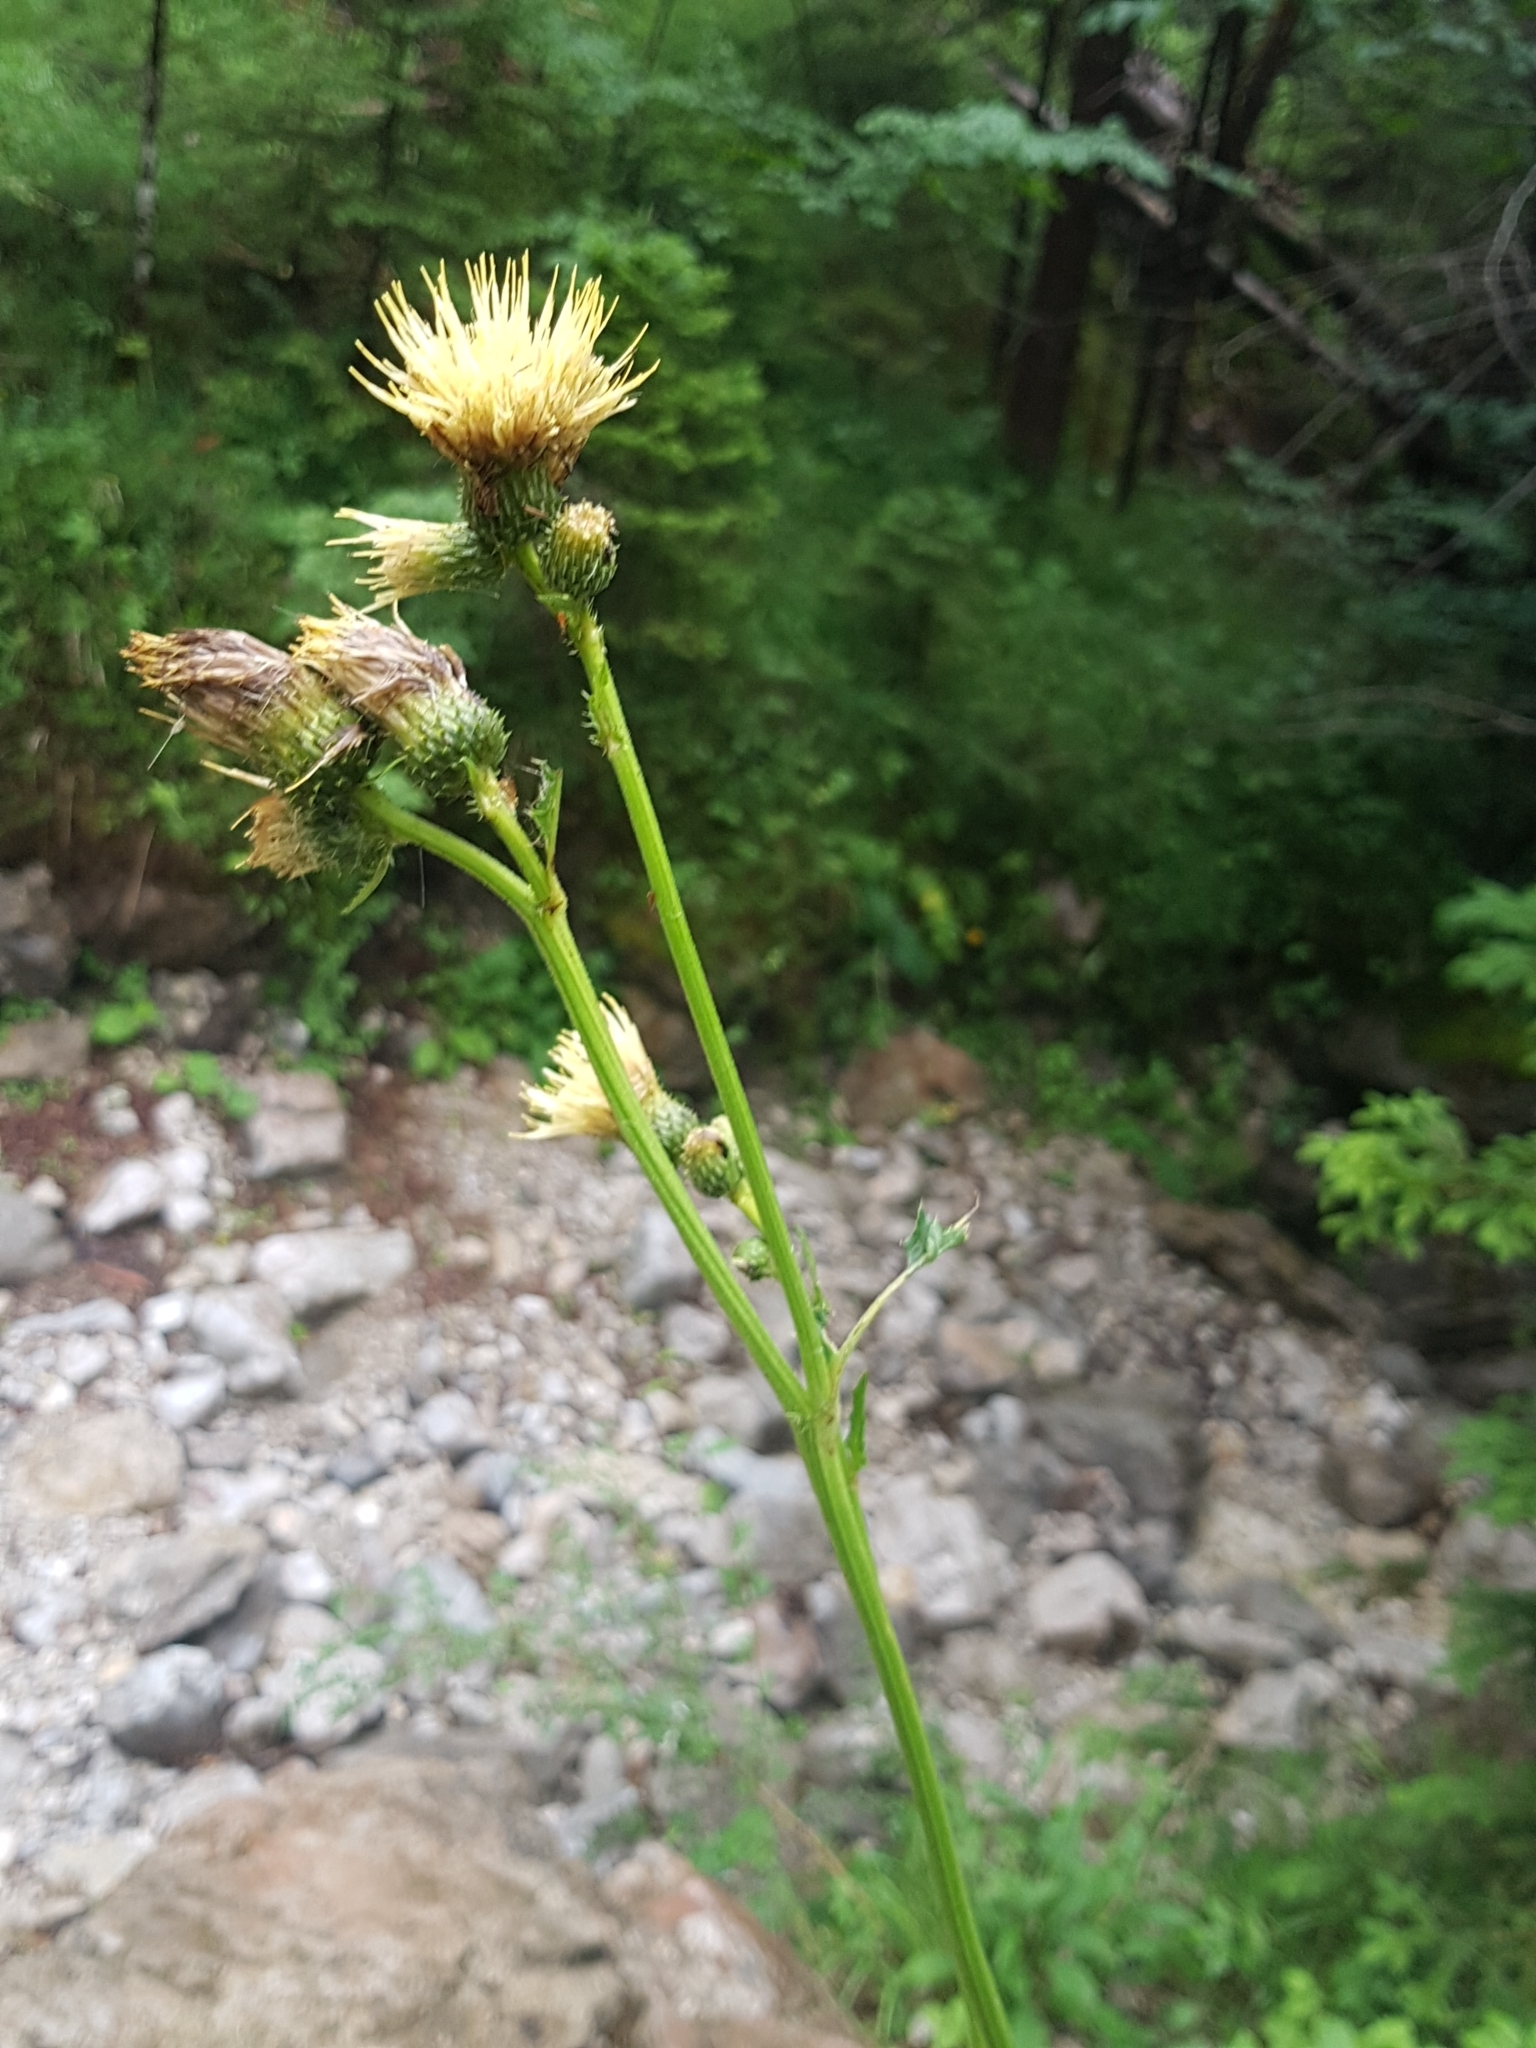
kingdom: Plantae
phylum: Tracheophyta
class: Magnoliopsida
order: Asterales
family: Asteraceae
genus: Cirsium
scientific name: Cirsium erisithales
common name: Yellow thistle
